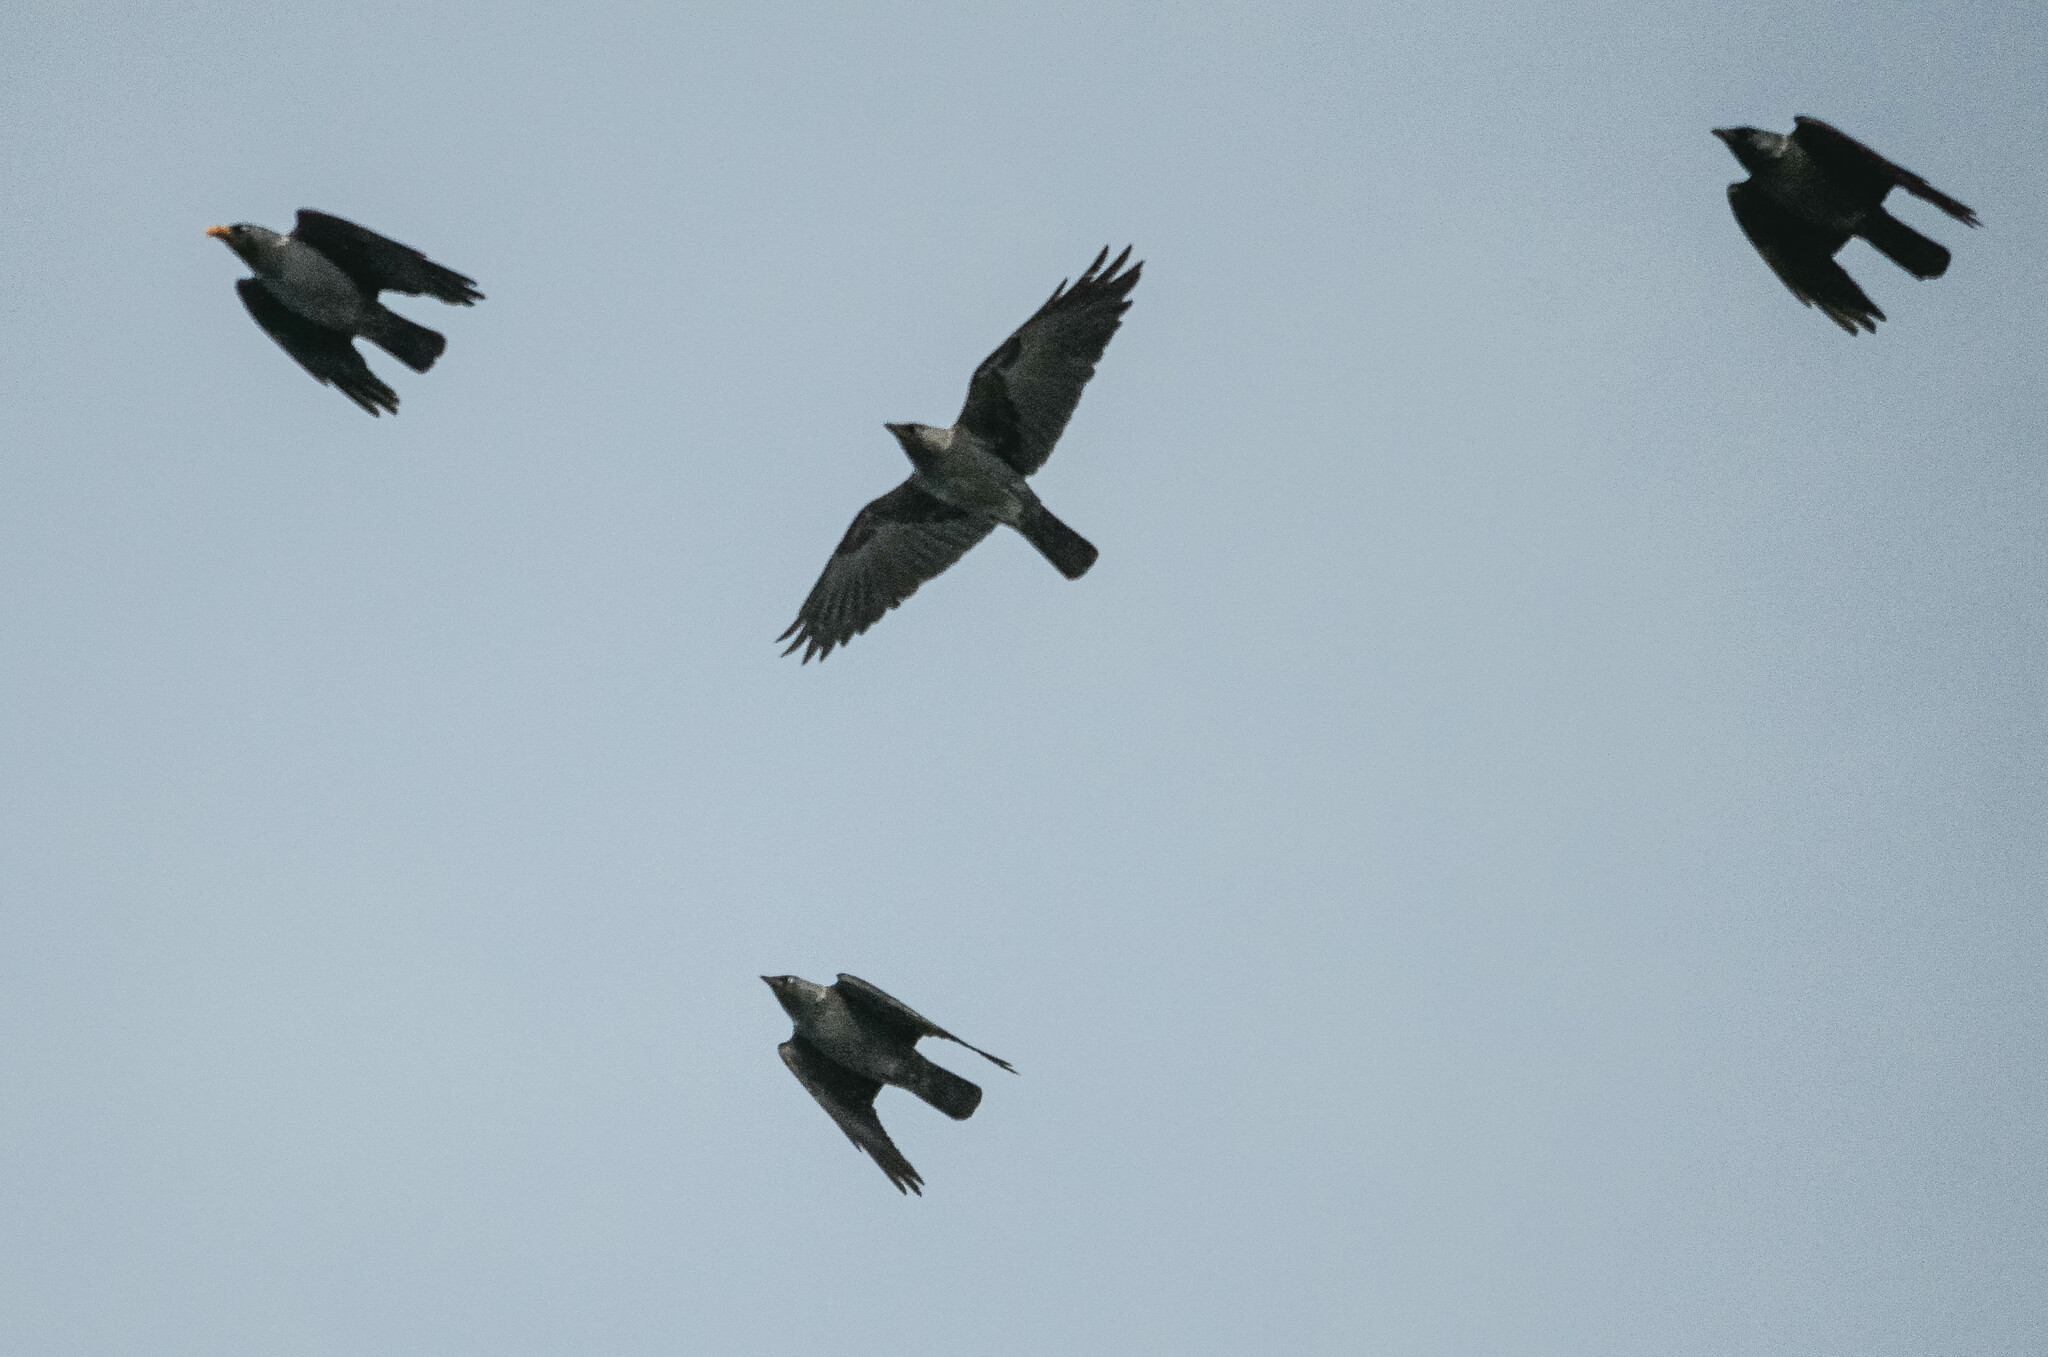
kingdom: Animalia
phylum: Chordata
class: Aves
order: Passeriformes
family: Corvidae
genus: Coloeus
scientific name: Coloeus monedula
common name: Western jackdaw
